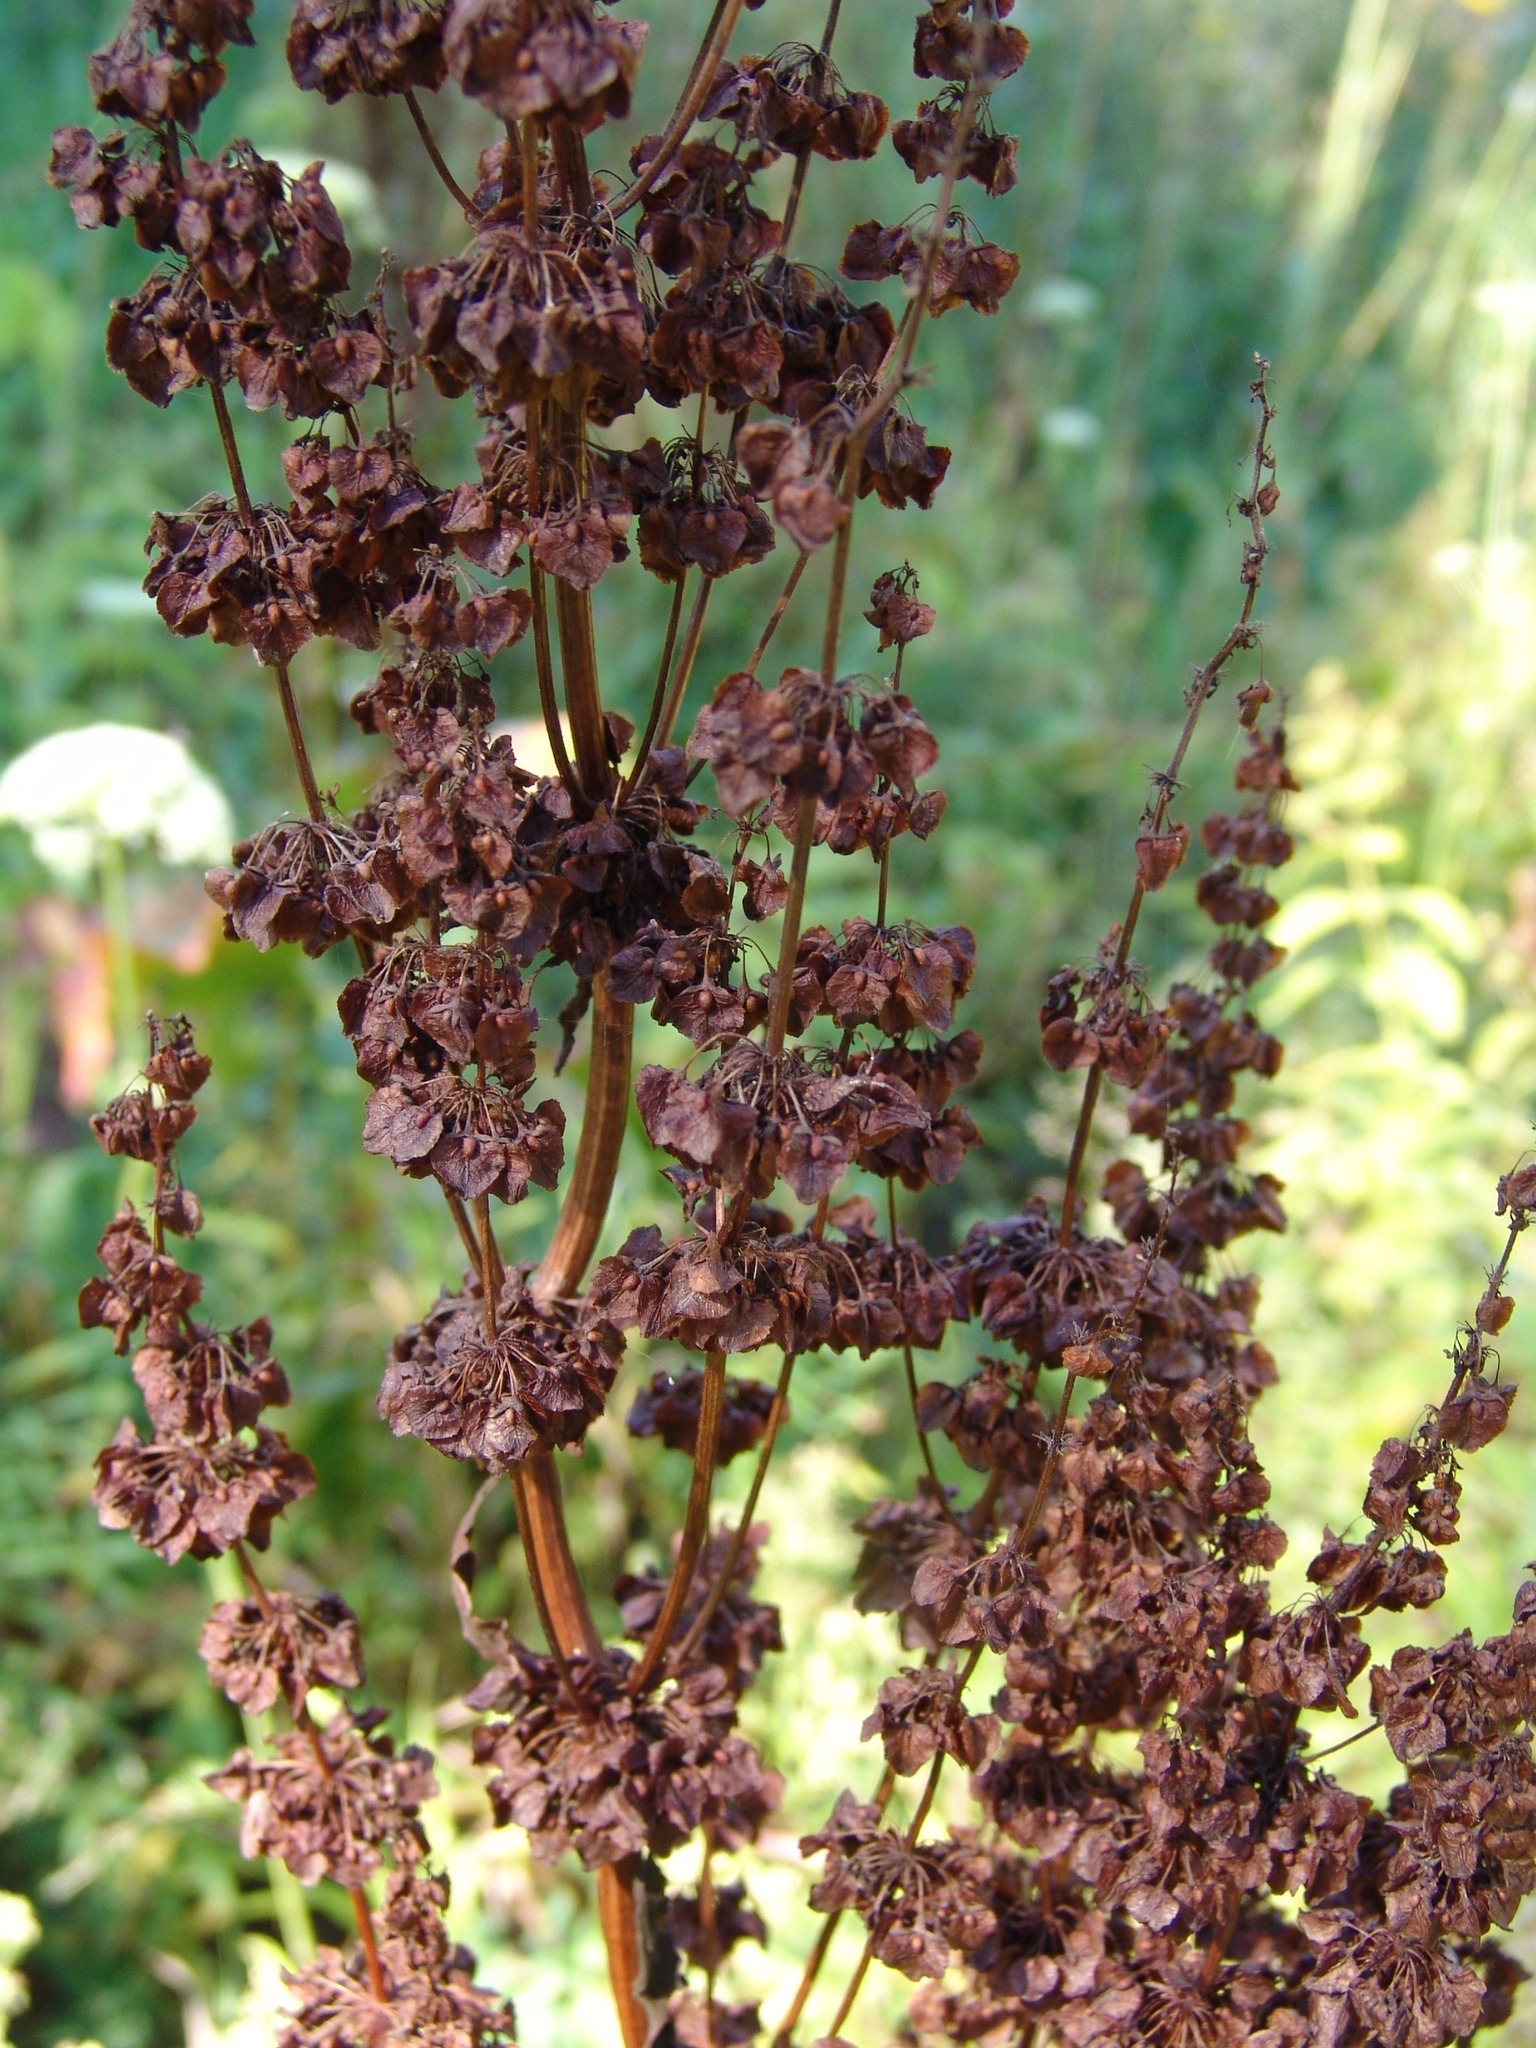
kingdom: Plantae
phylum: Tracheophyta
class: Magnoliopsida
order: Caryophyllales
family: Polygonaceae
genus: Rumex
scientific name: Rumex confertus
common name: Russian dock
